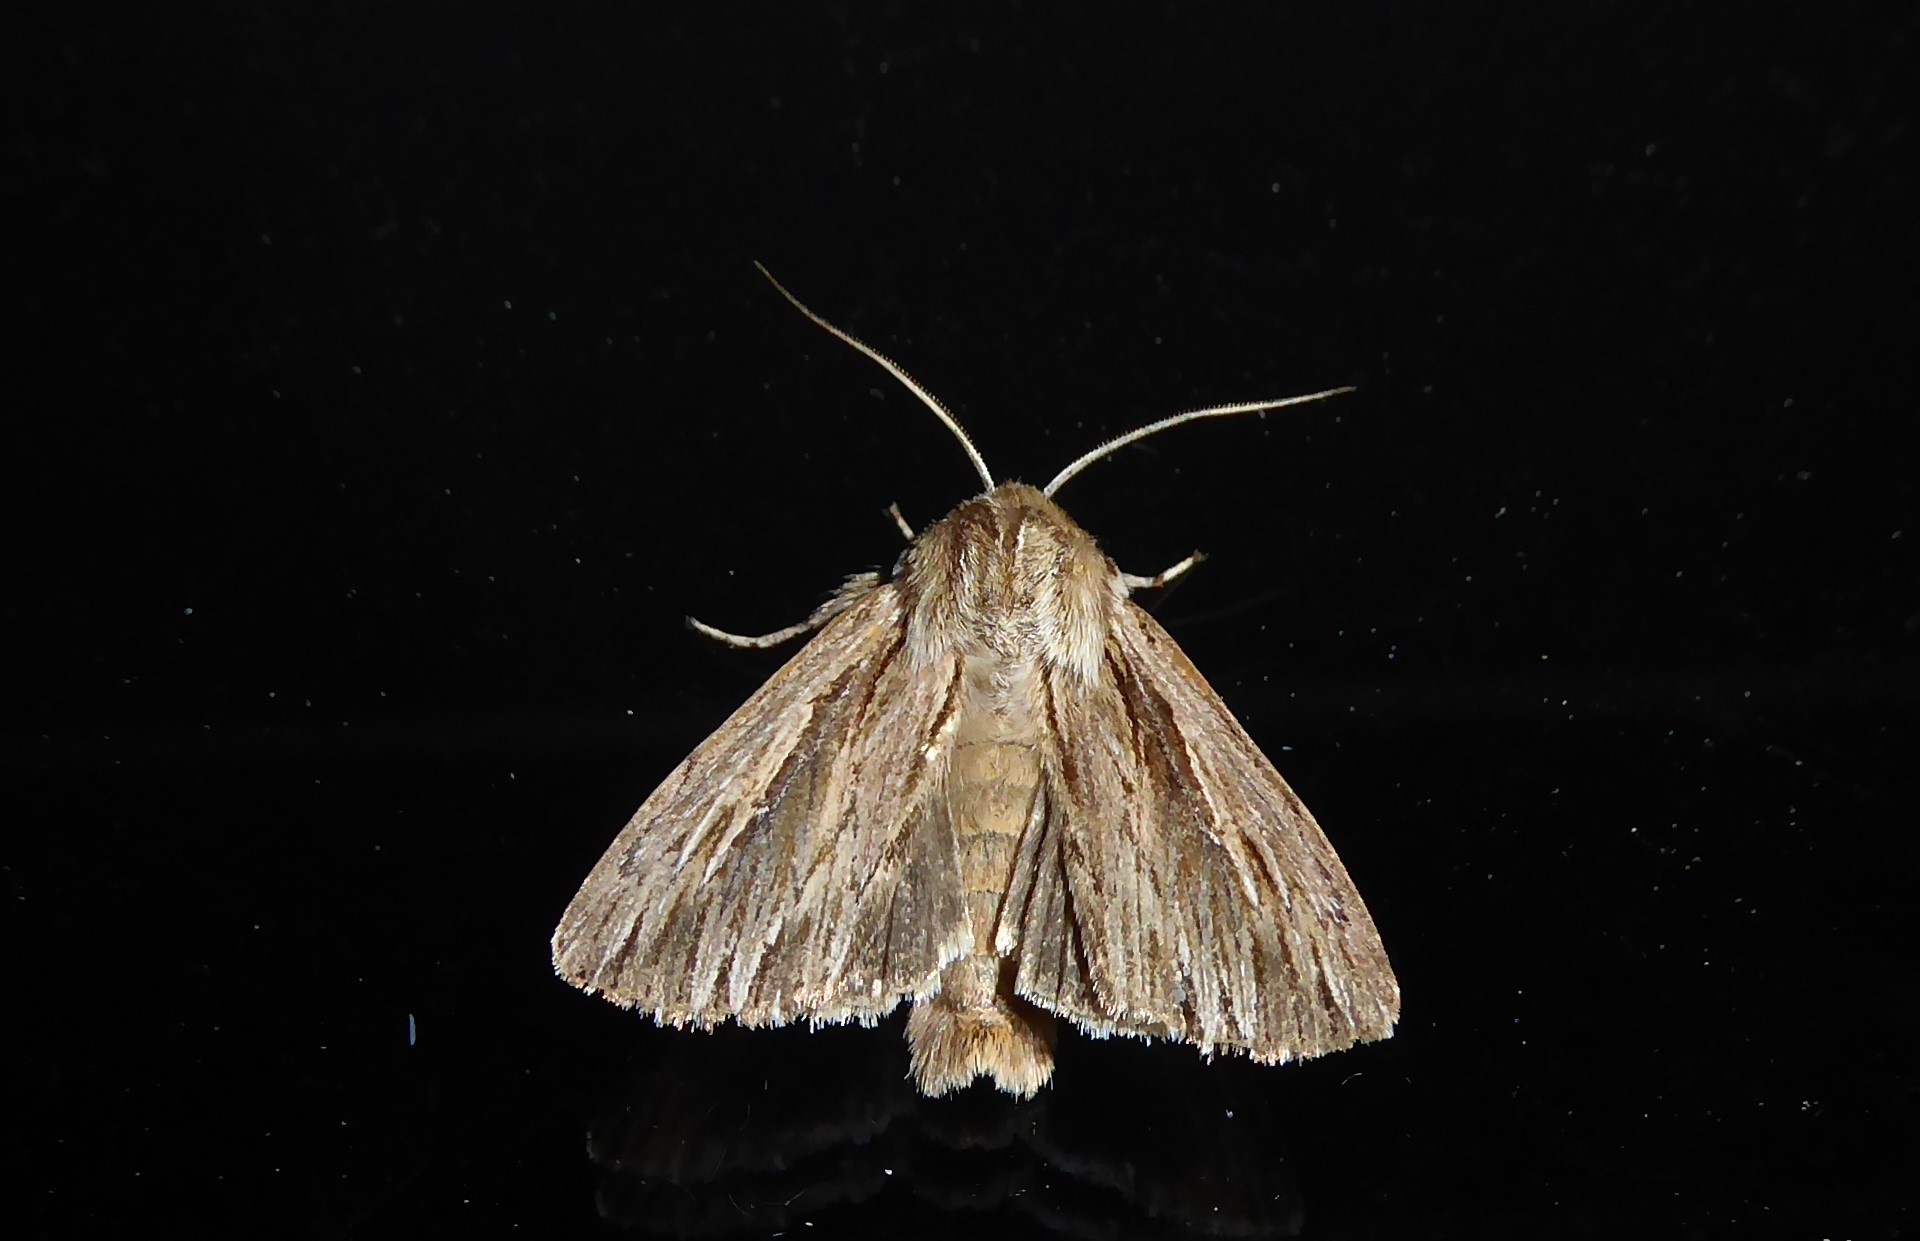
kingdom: Animalia
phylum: Arthropoda
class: Insecta
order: Lepidoptera
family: Noctuidae
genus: Persectania
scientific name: Persectania aversa
